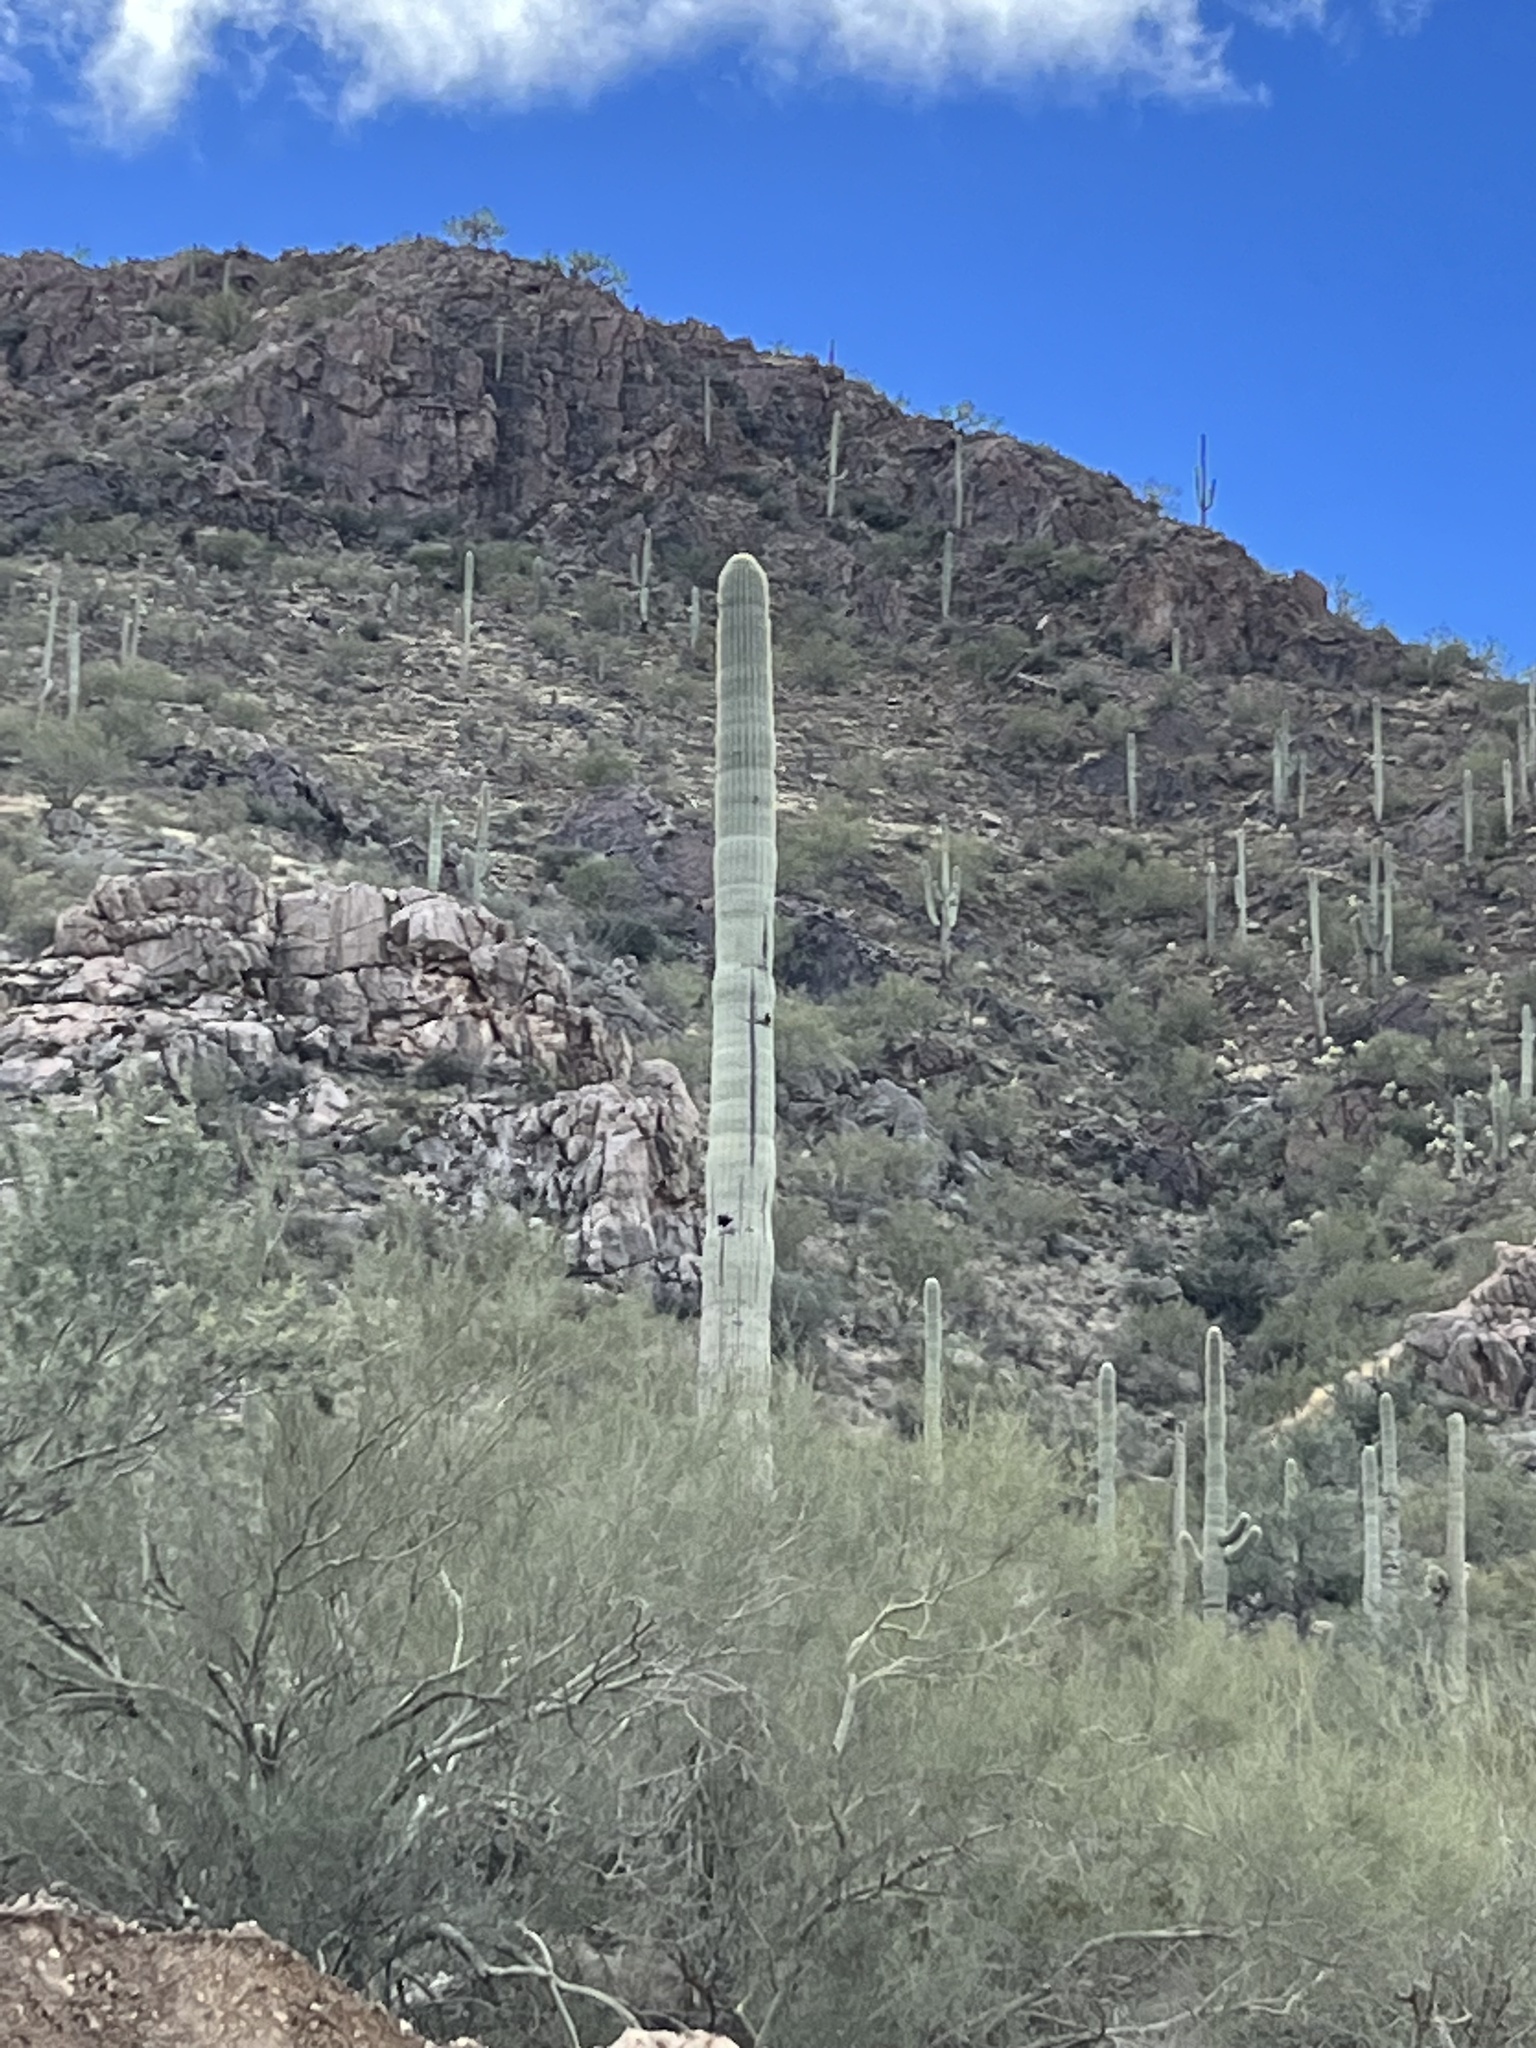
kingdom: Plantae
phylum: Tracheophyta
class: Magnoliopsida
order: Caryophyllales
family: Cactaceae
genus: Carnegiea
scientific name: Carnegiea gigantea
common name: Saguaro
